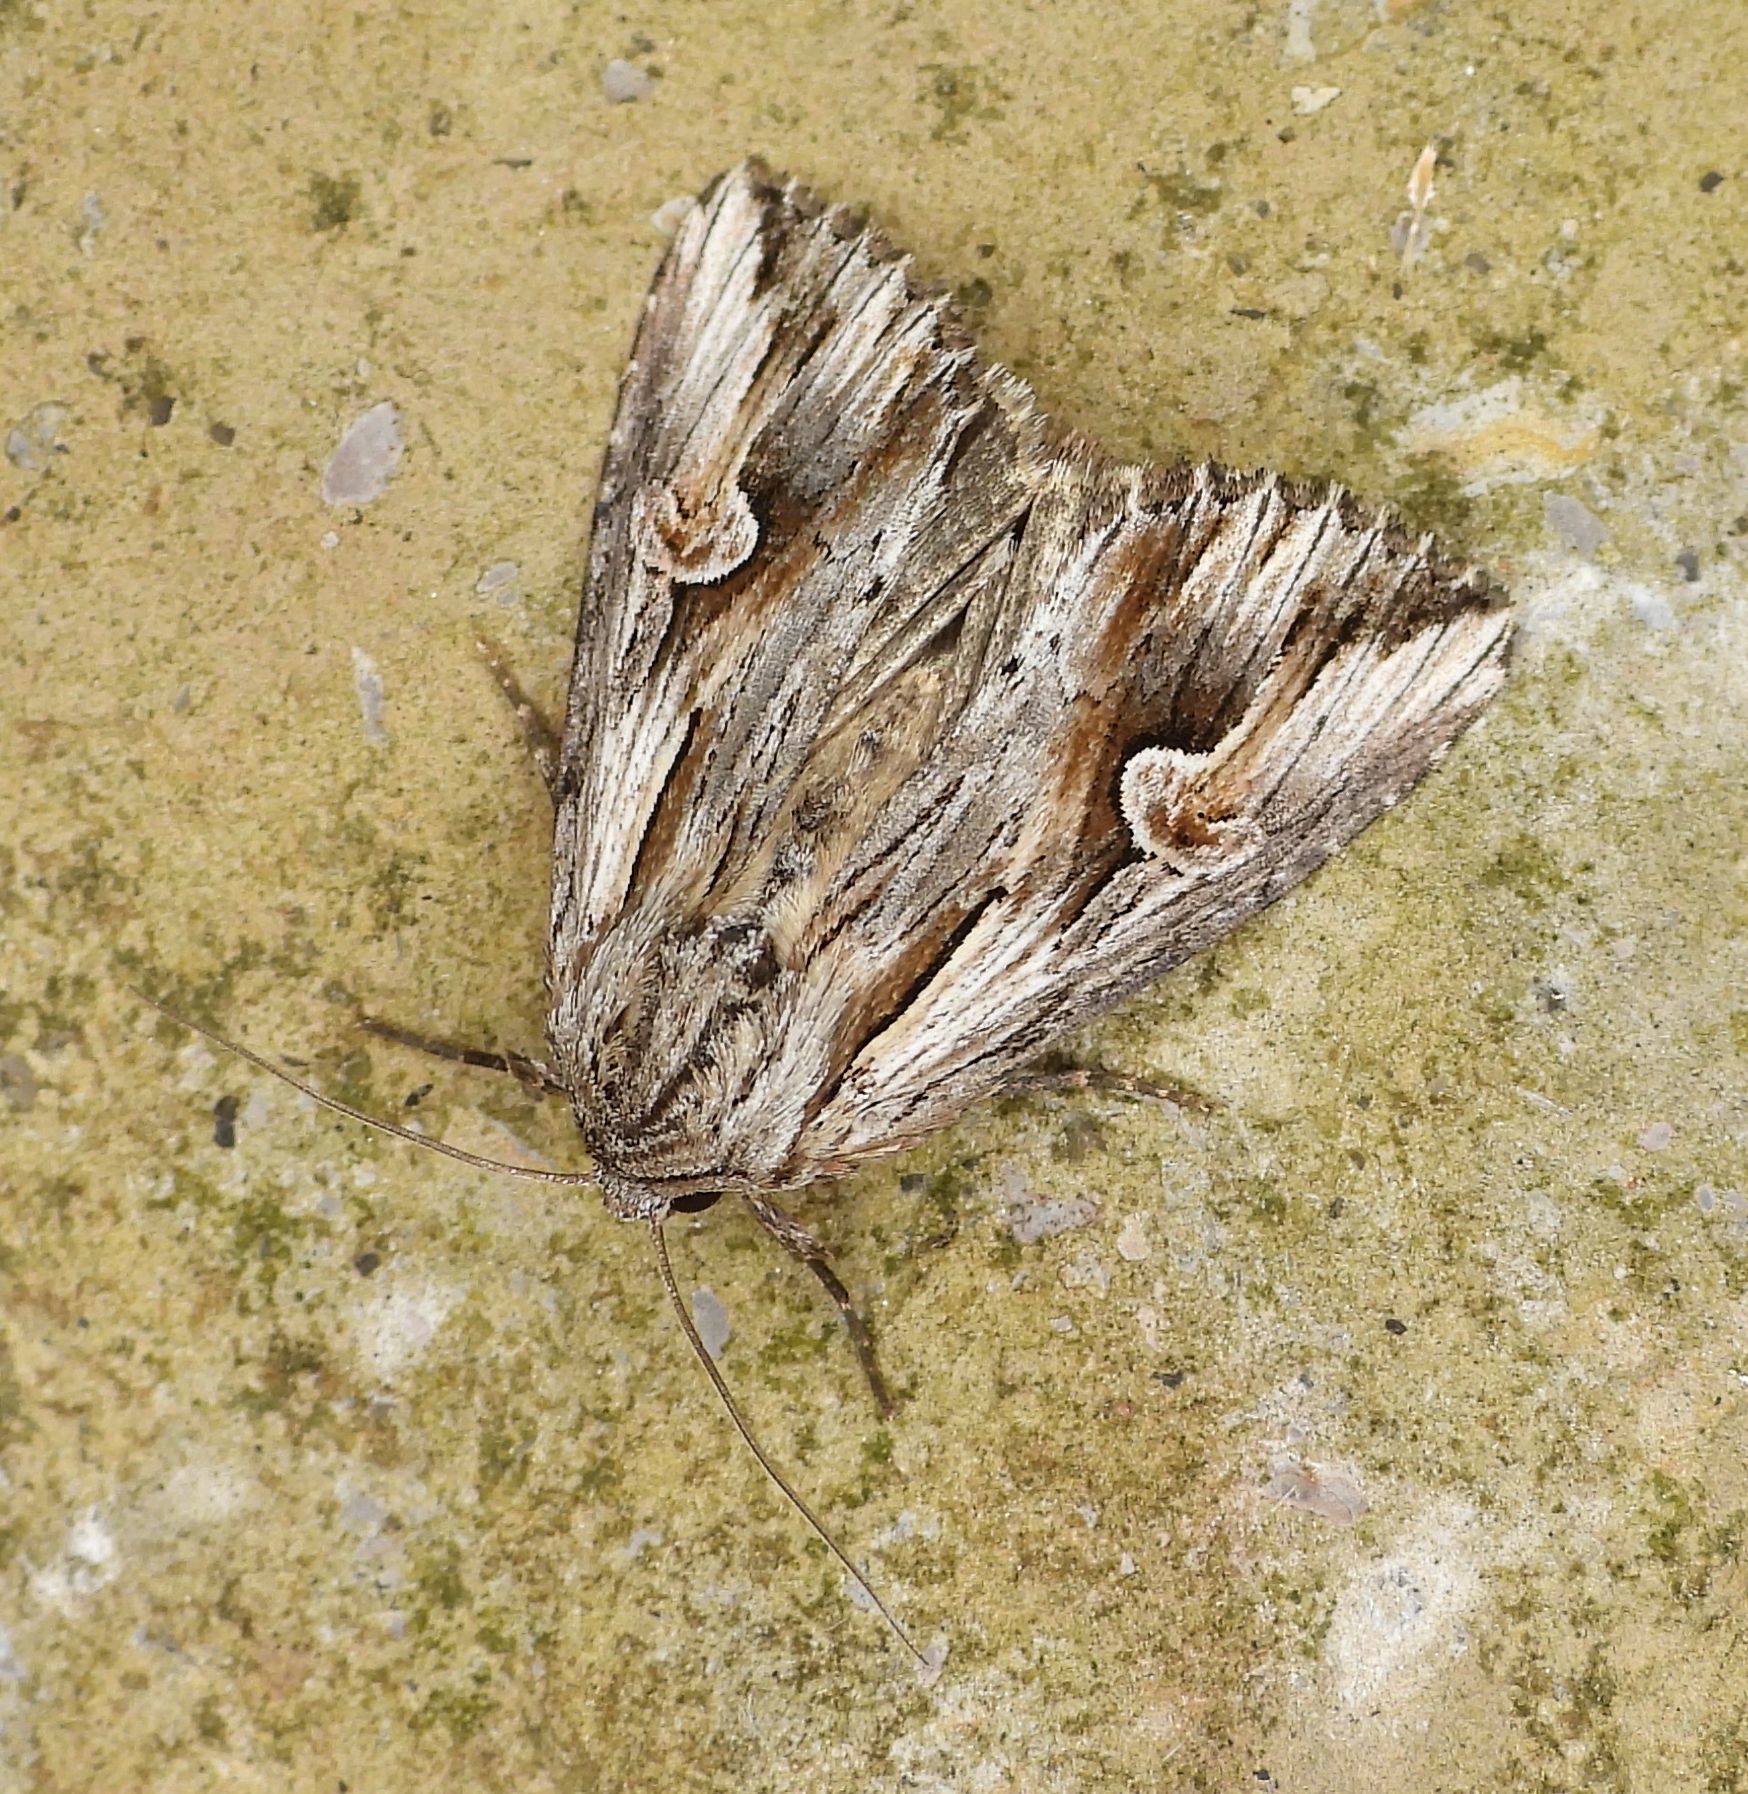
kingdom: Animalia
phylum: Arthropoda
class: Insecta
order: Lepidoptera
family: Noctuidae
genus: Nedra
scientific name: Nedra ramosula
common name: Gray half-spot
